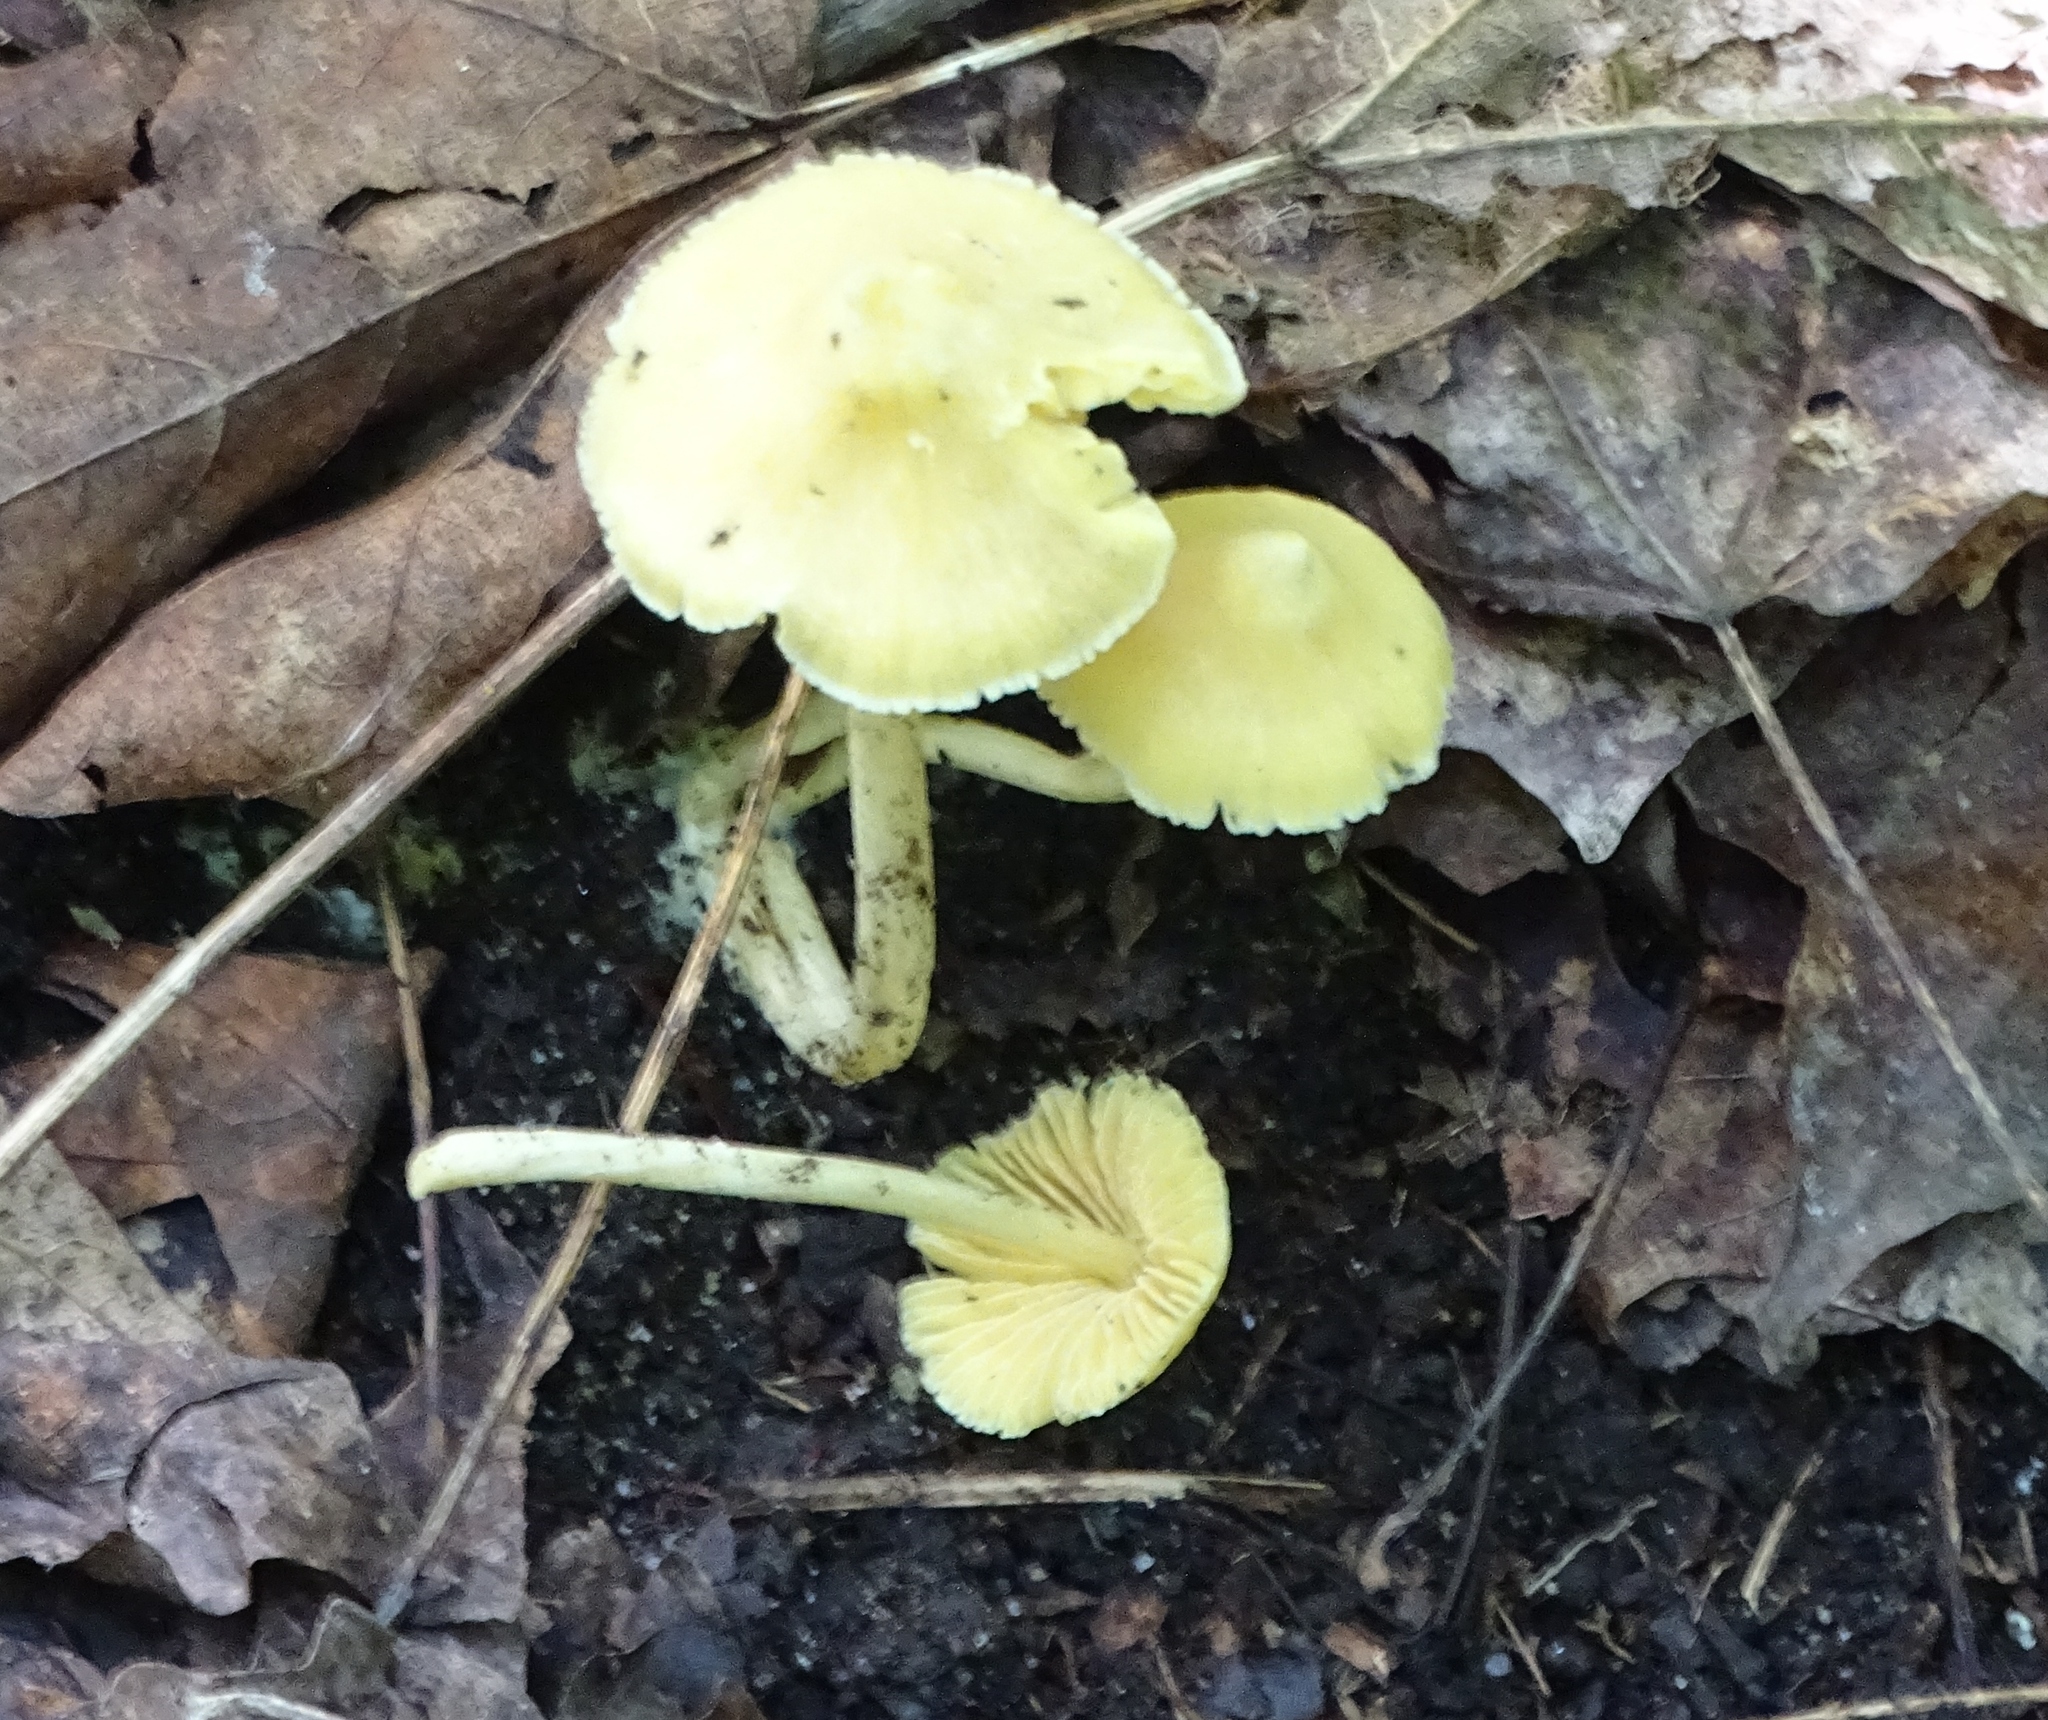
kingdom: Fungi
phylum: Basidiomycota
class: Agaricomycetes
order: Agaricales
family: Entolomataceae
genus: Entoloma
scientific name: Entoloma murrayi
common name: Yellow unicorn entoloma
